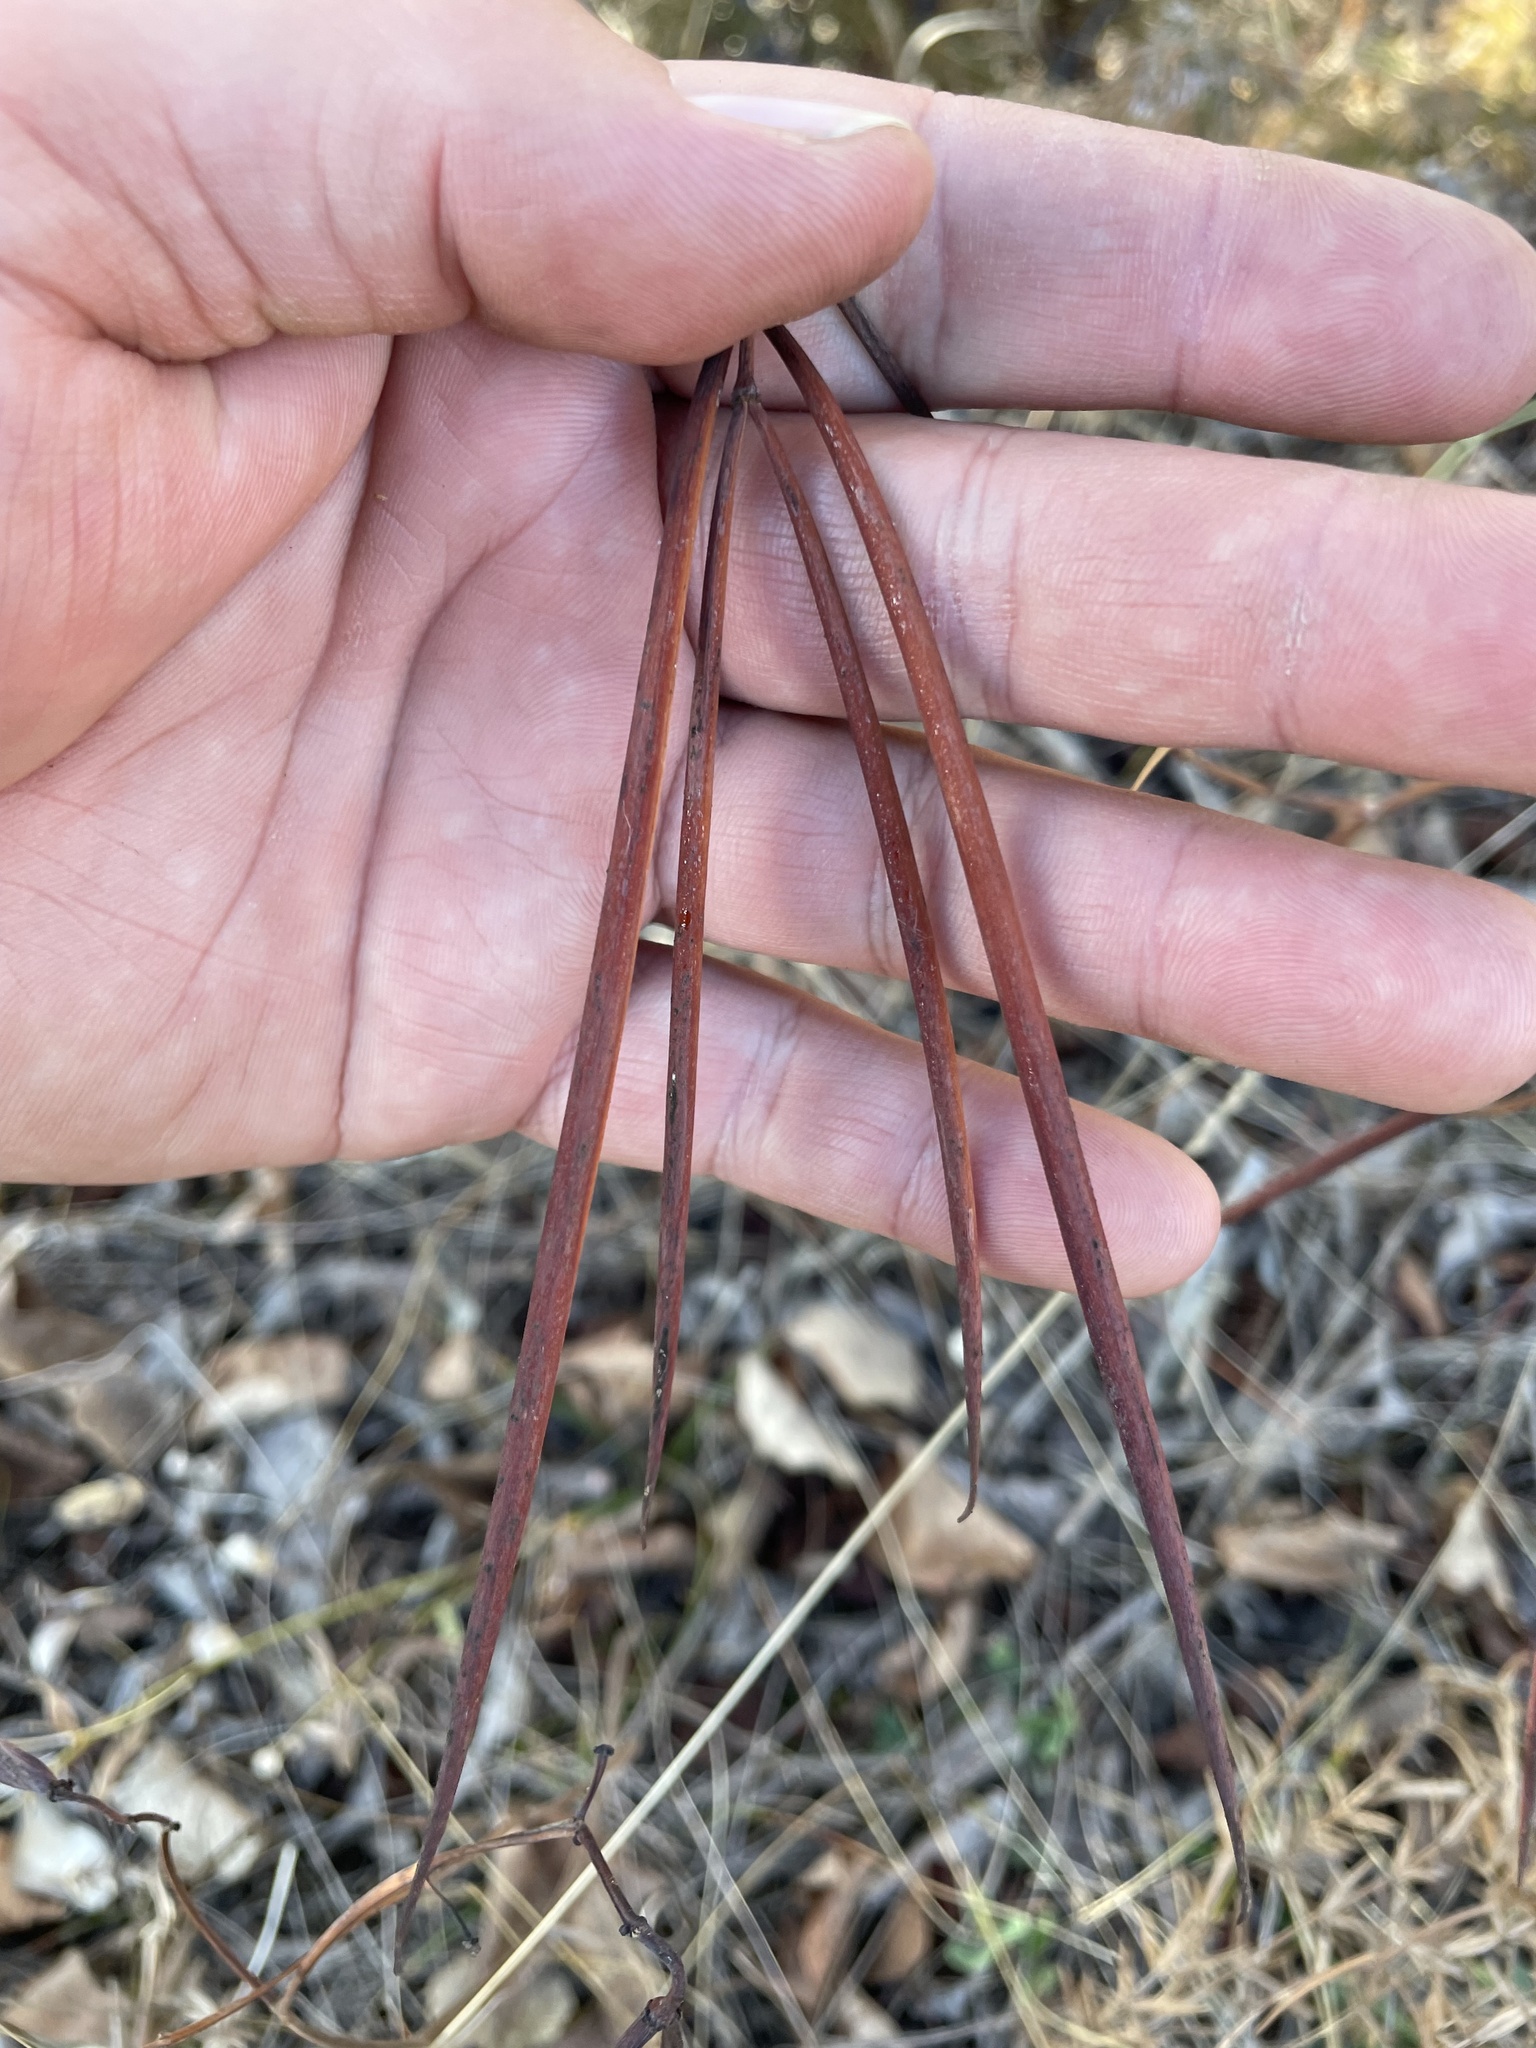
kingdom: Plantae
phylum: Tracheophyta
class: Magnoliopsida
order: Gentianales
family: Apocynaceae
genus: Apocynum
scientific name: Apocynum androsaemifolium
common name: Spreading dogbane
